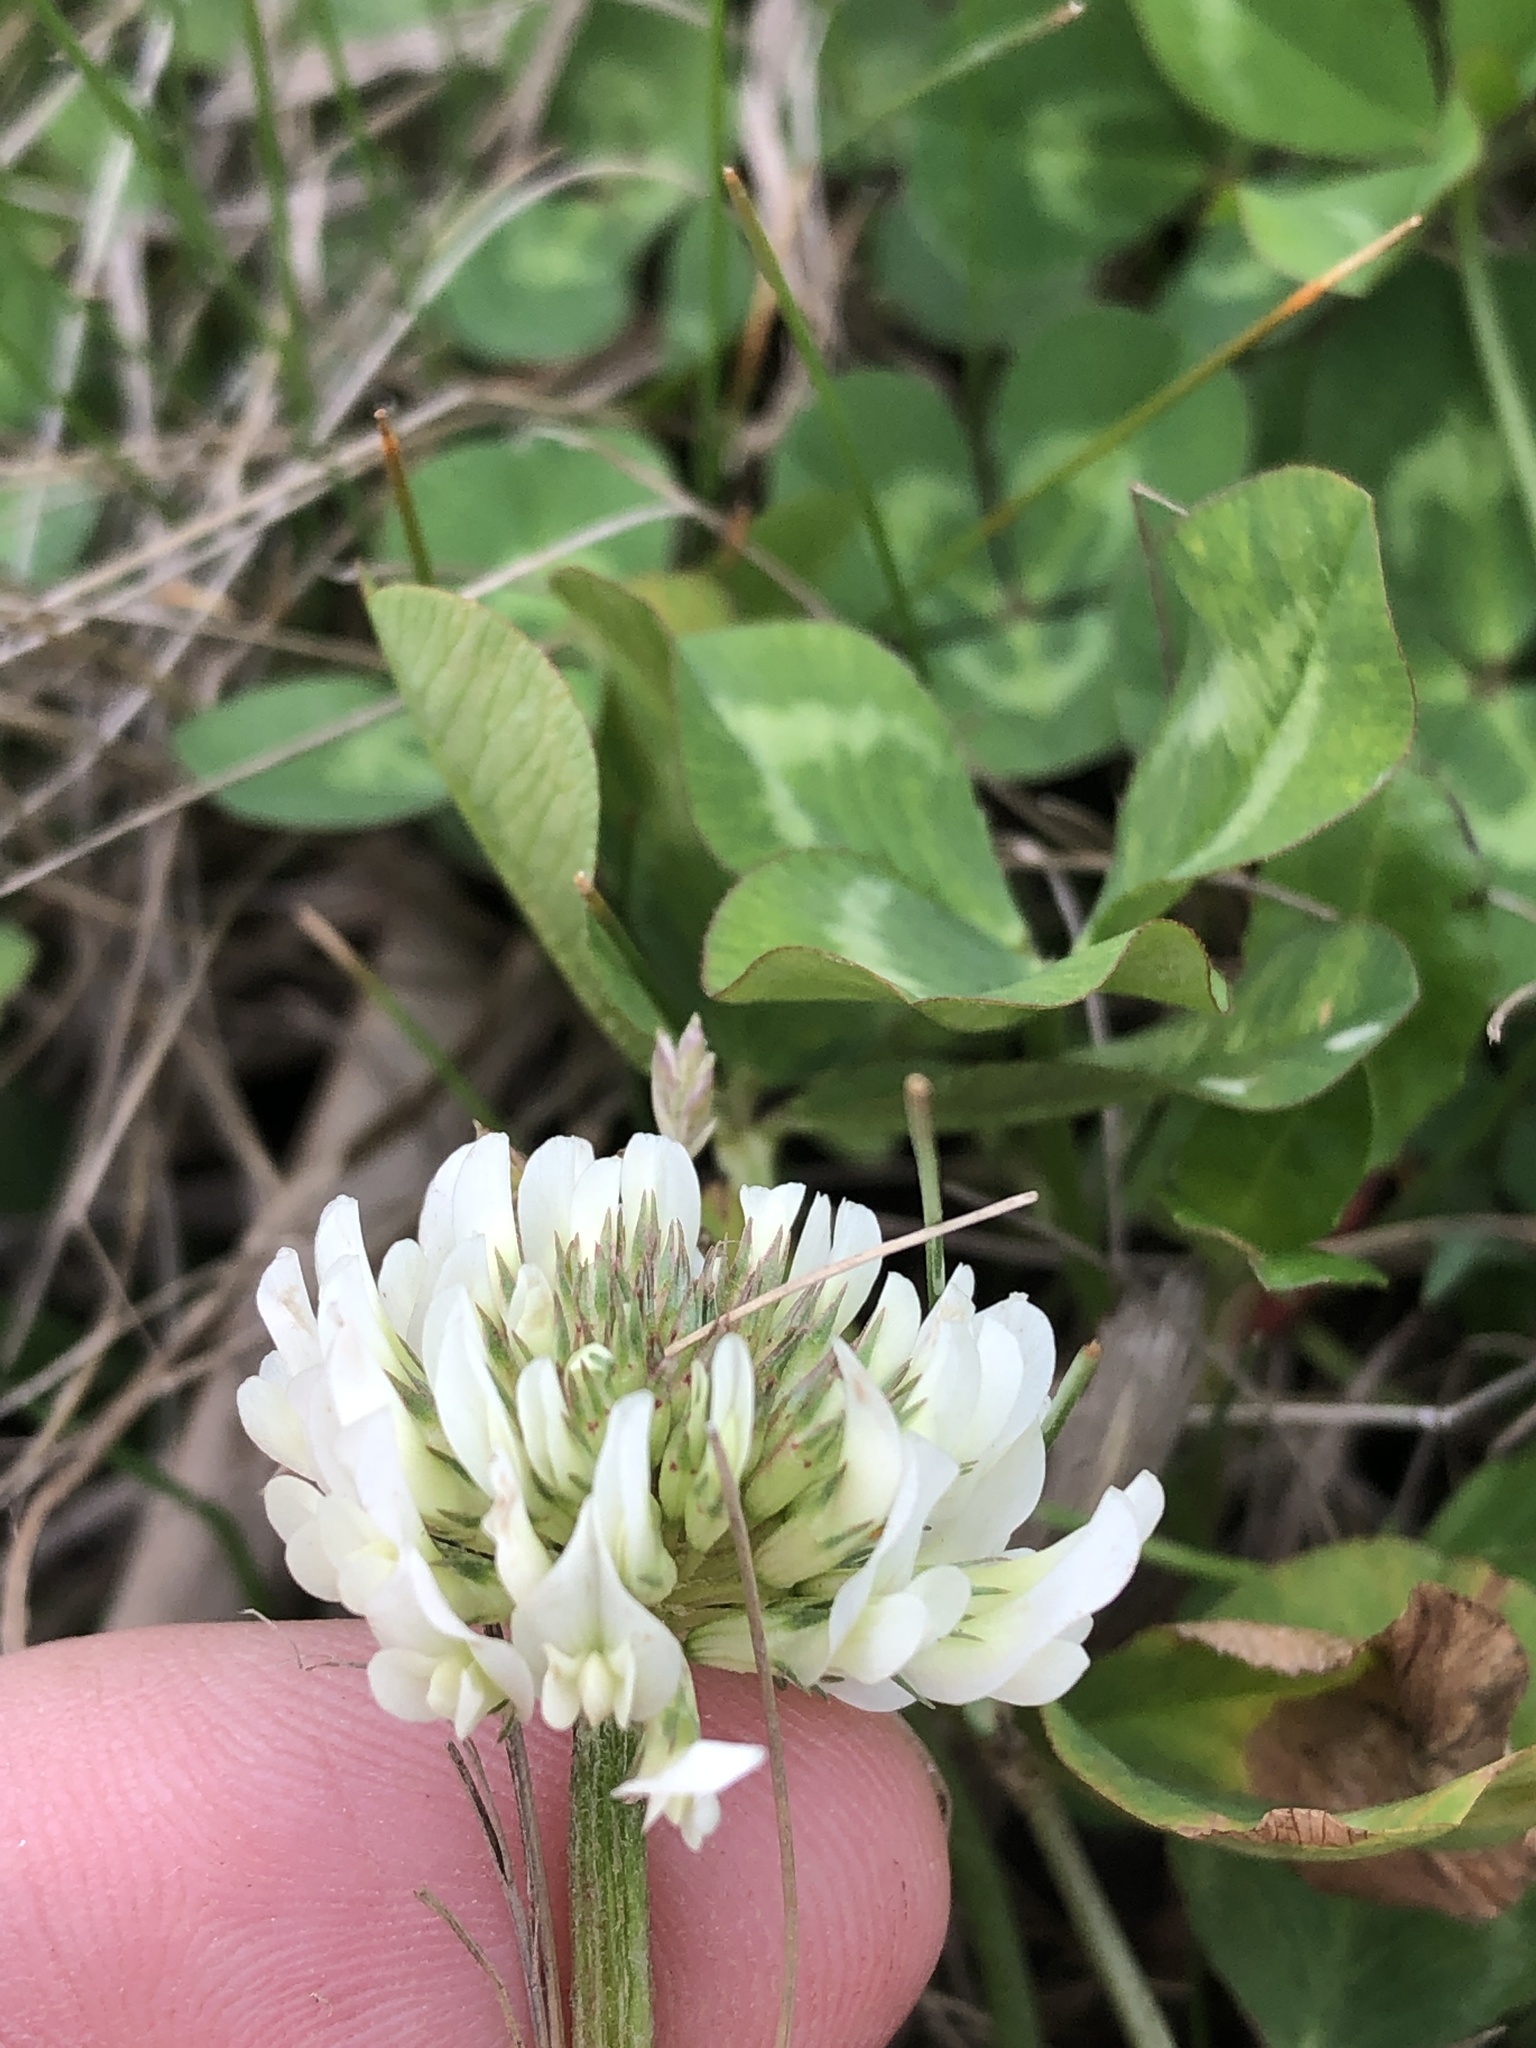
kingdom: Plantae
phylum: Tracheophyta
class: Magnoliopsida
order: Fabales
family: Fabaceae
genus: Trifolium
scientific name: Trifolium repens
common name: White clover
